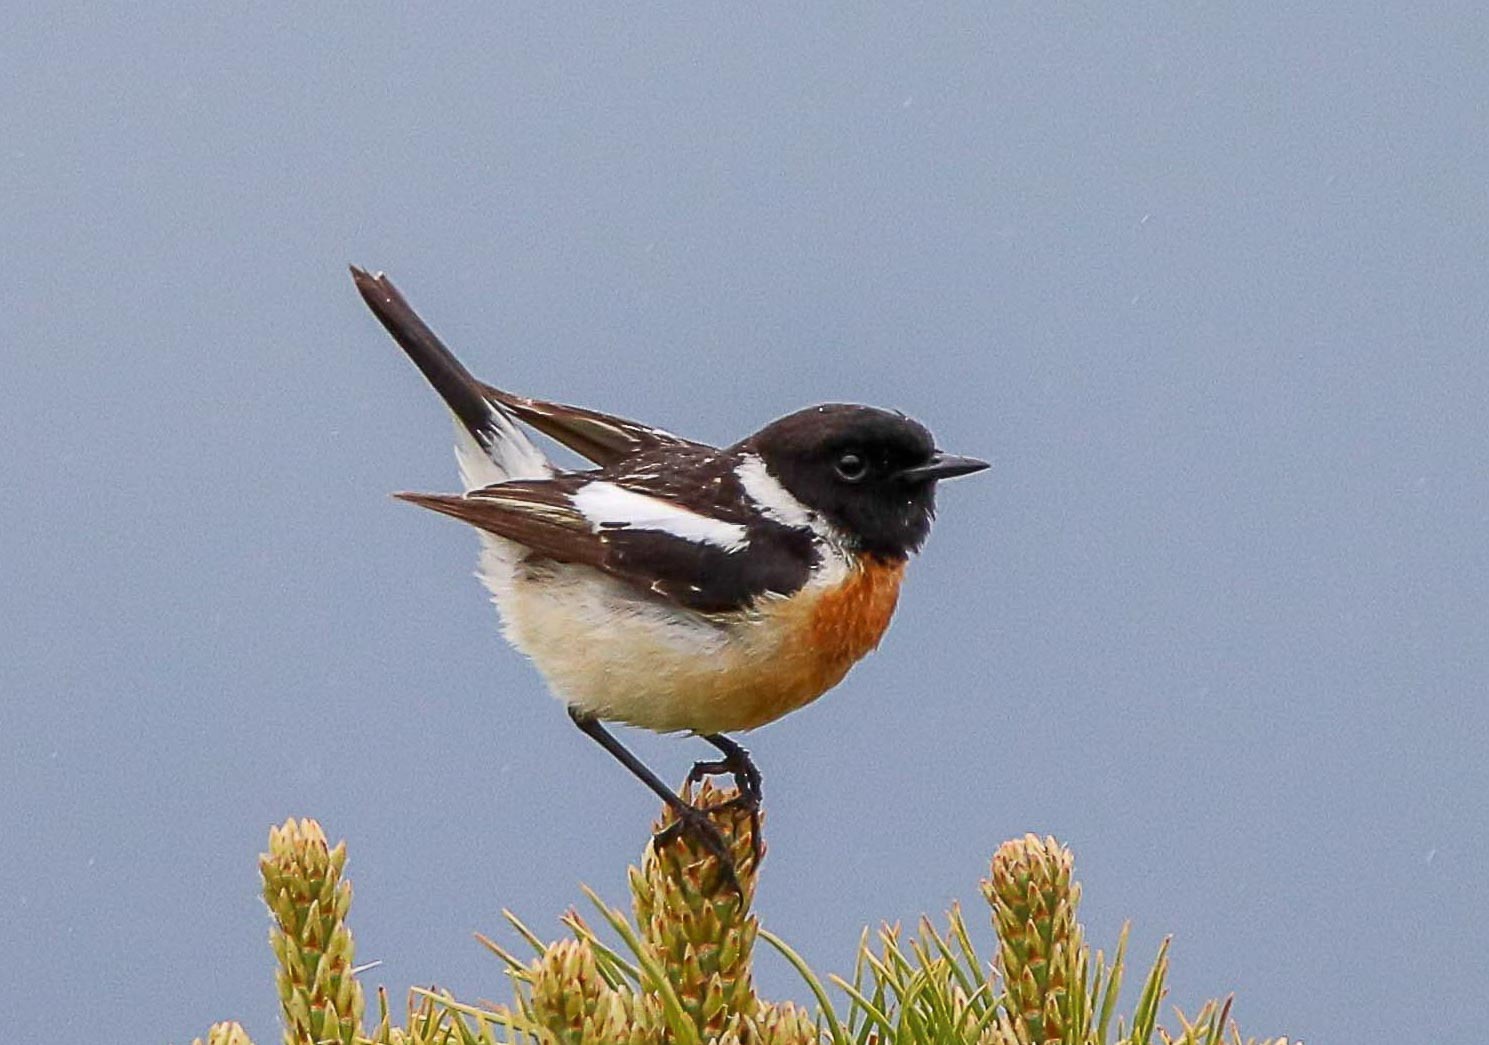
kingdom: Animalia
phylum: Chordata
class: Aves
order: Passeriformes
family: Muscicapidae
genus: Saxicola
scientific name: Saxicola maurus
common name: Siberian stonechat
